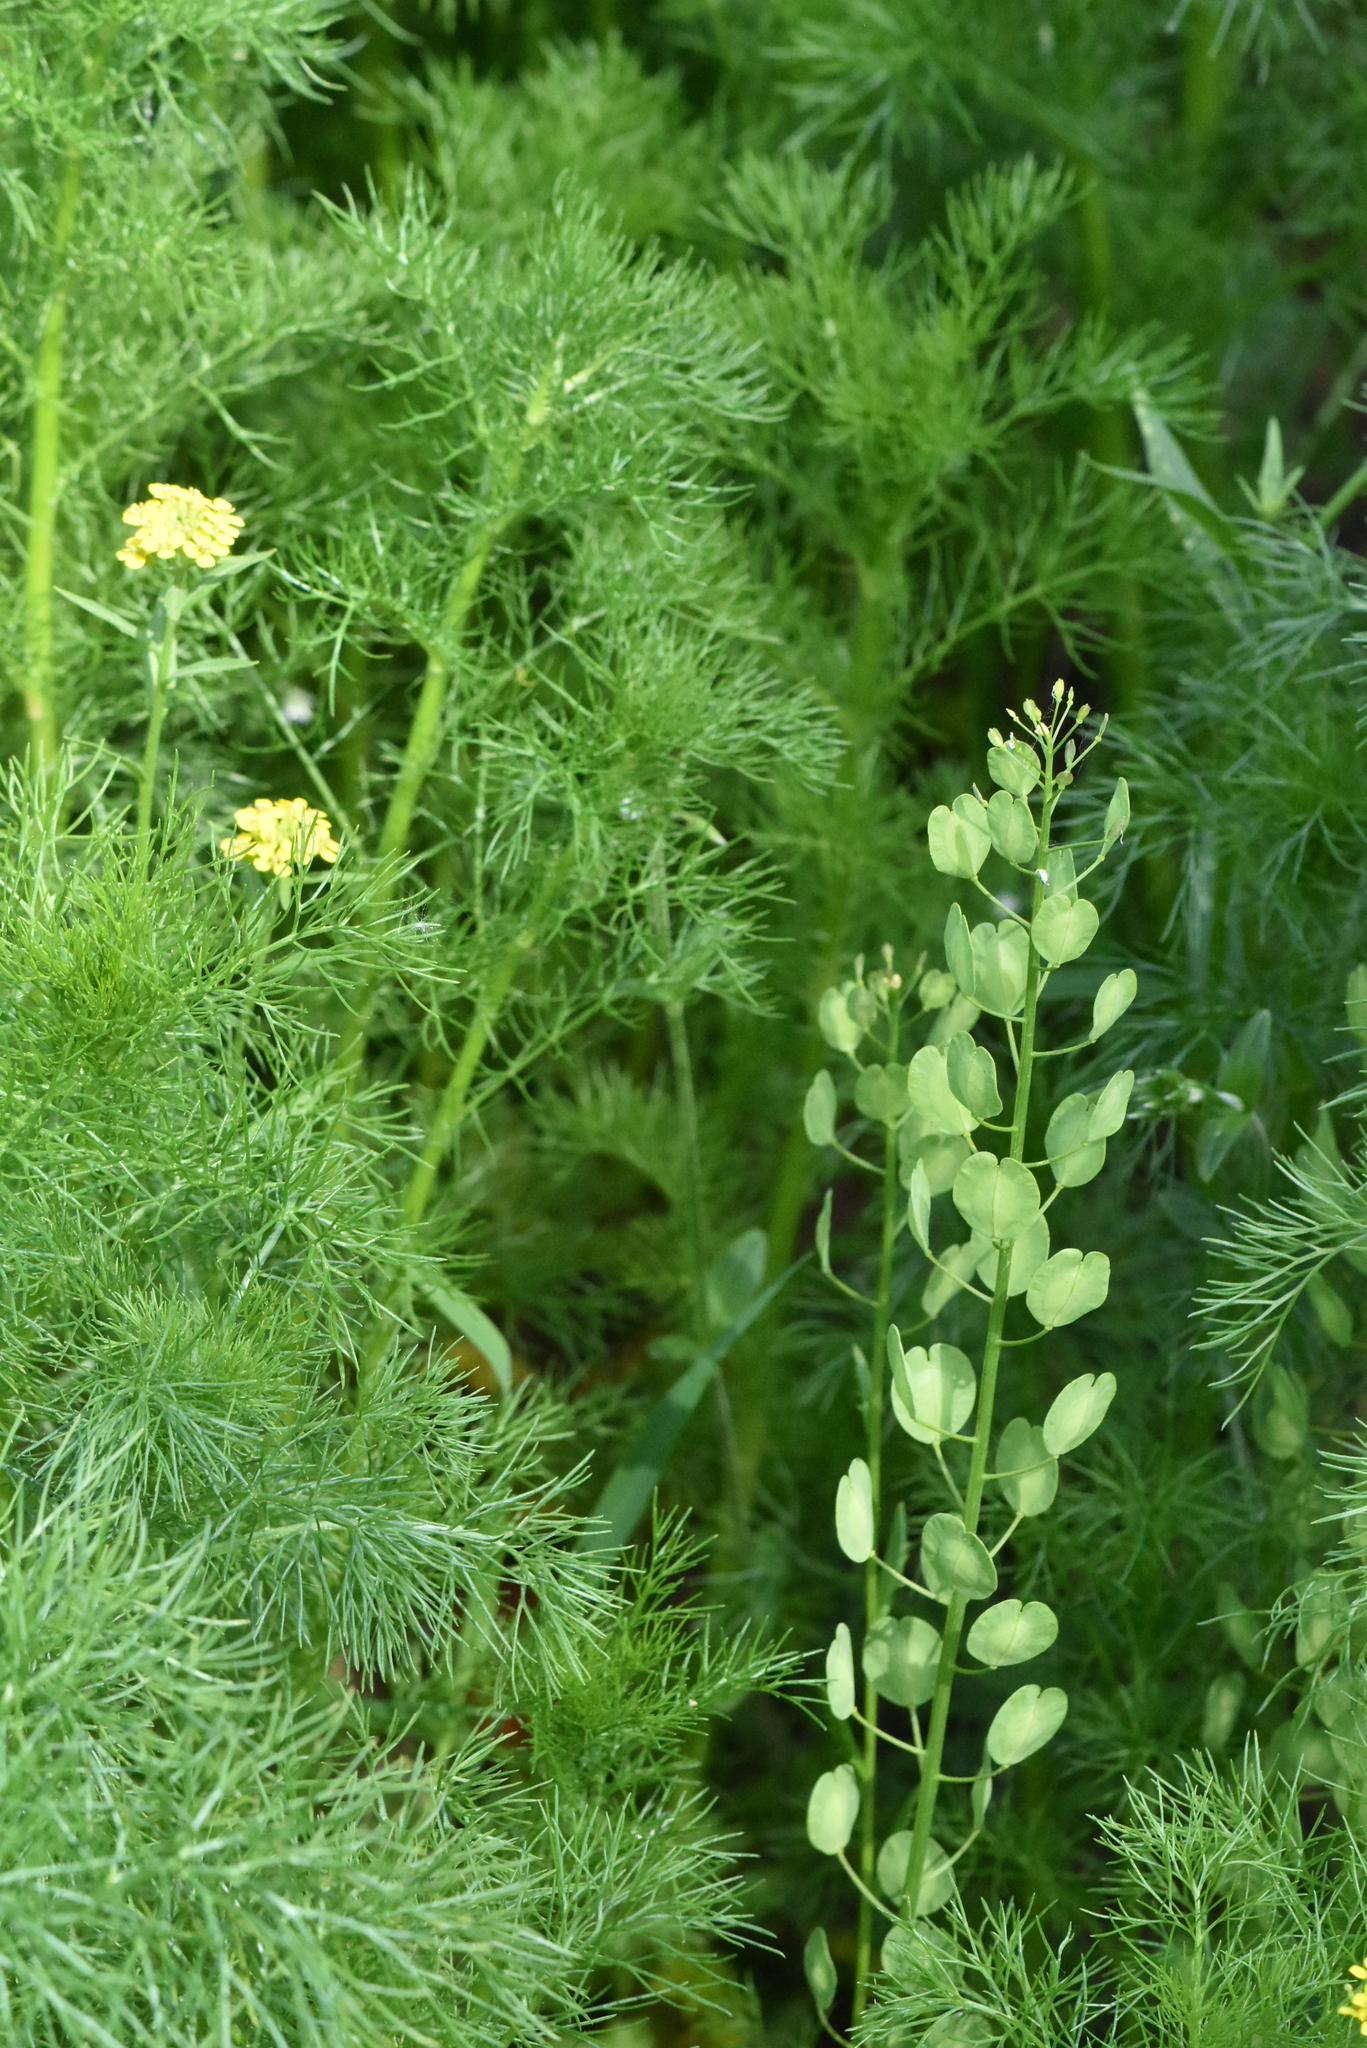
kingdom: Plantae
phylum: Tracheophyta
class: Magnoliopsida
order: Brassicales
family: Brassicaceae
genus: Thlaspi
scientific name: Thlaspi arvense
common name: Field pennycress
